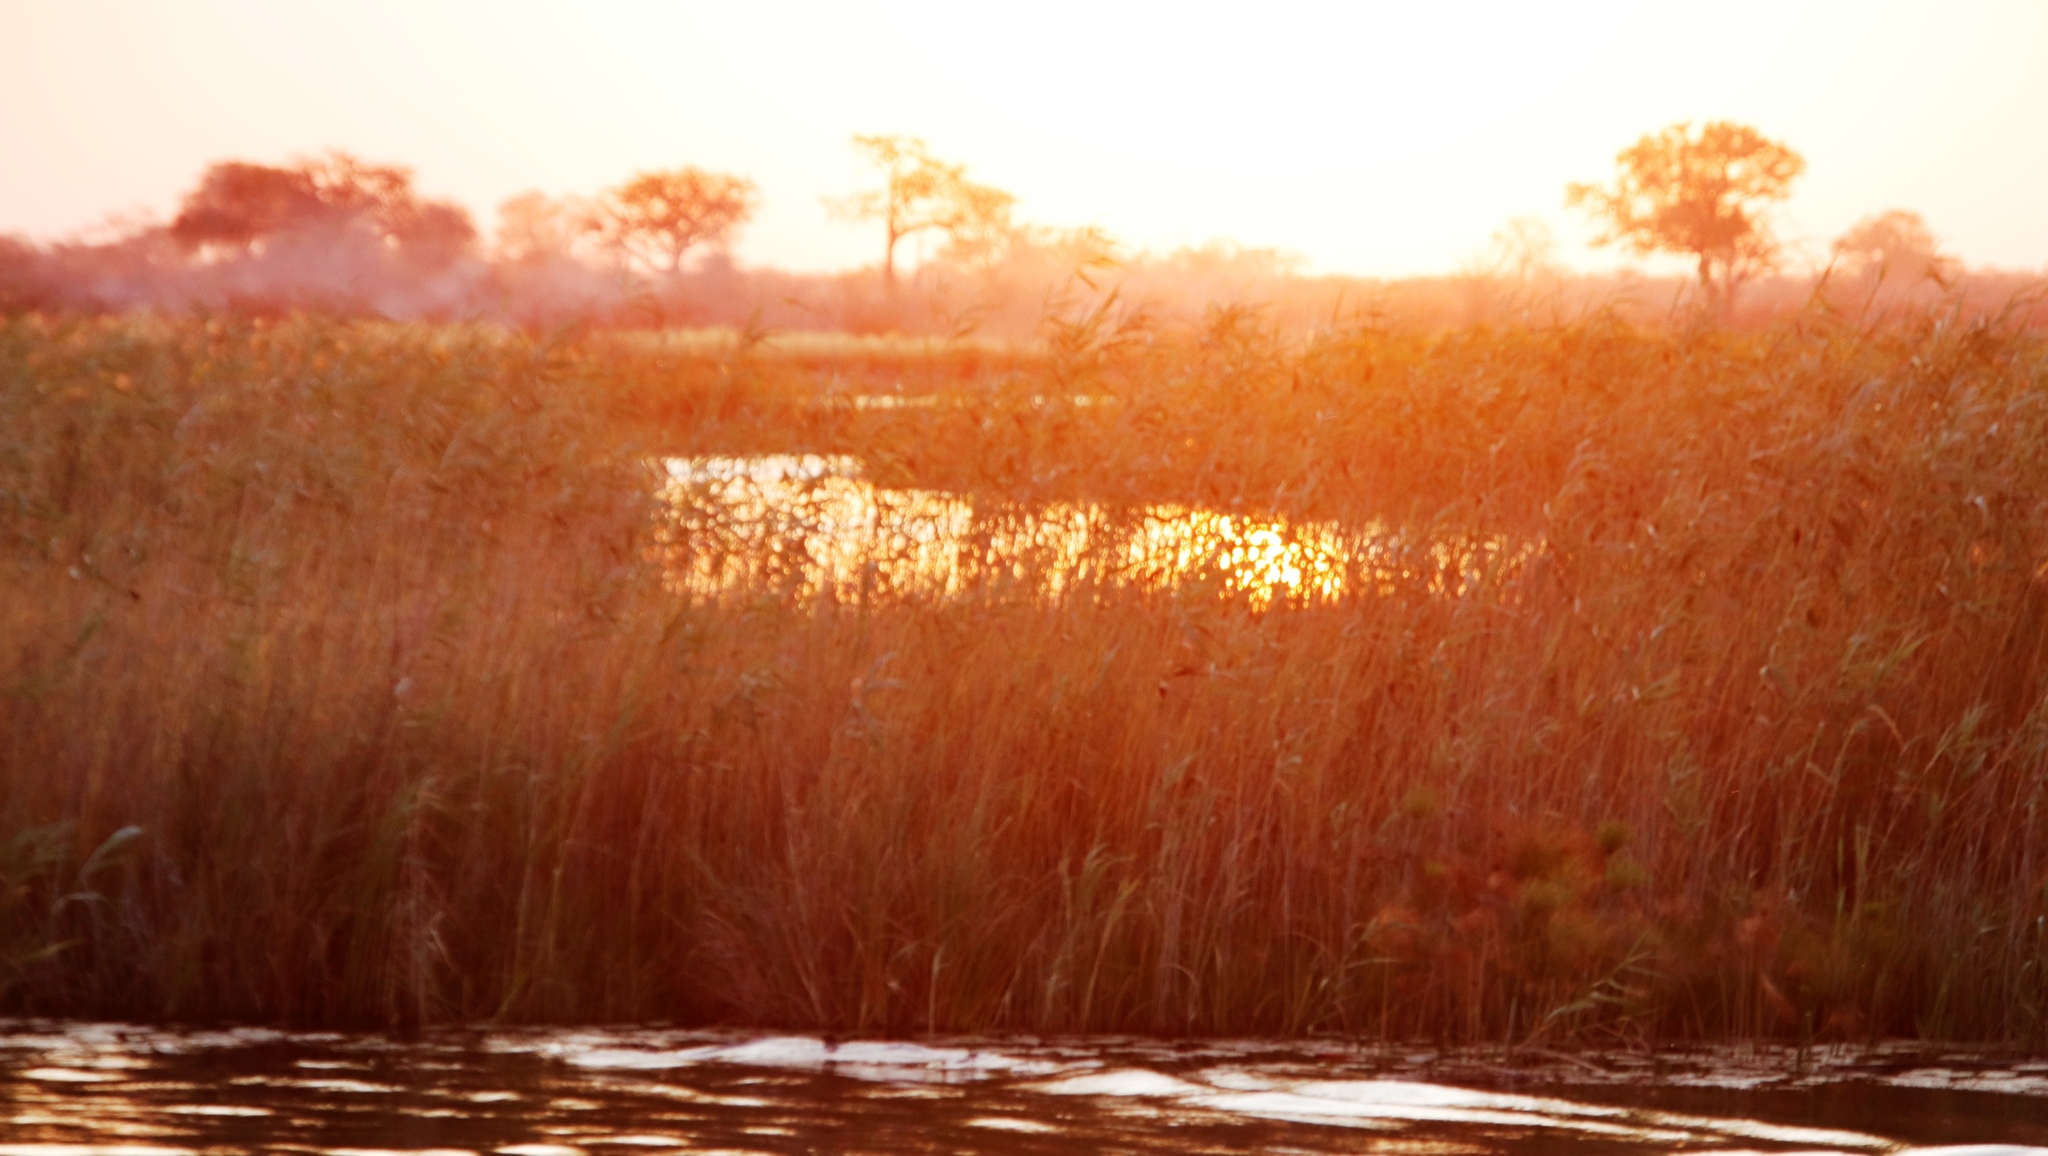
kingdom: Plantae
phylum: Tracheophyta
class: Liliopsida
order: Poales
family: Poaceae
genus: Phragmites
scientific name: Phragmites australis
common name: Common reed
